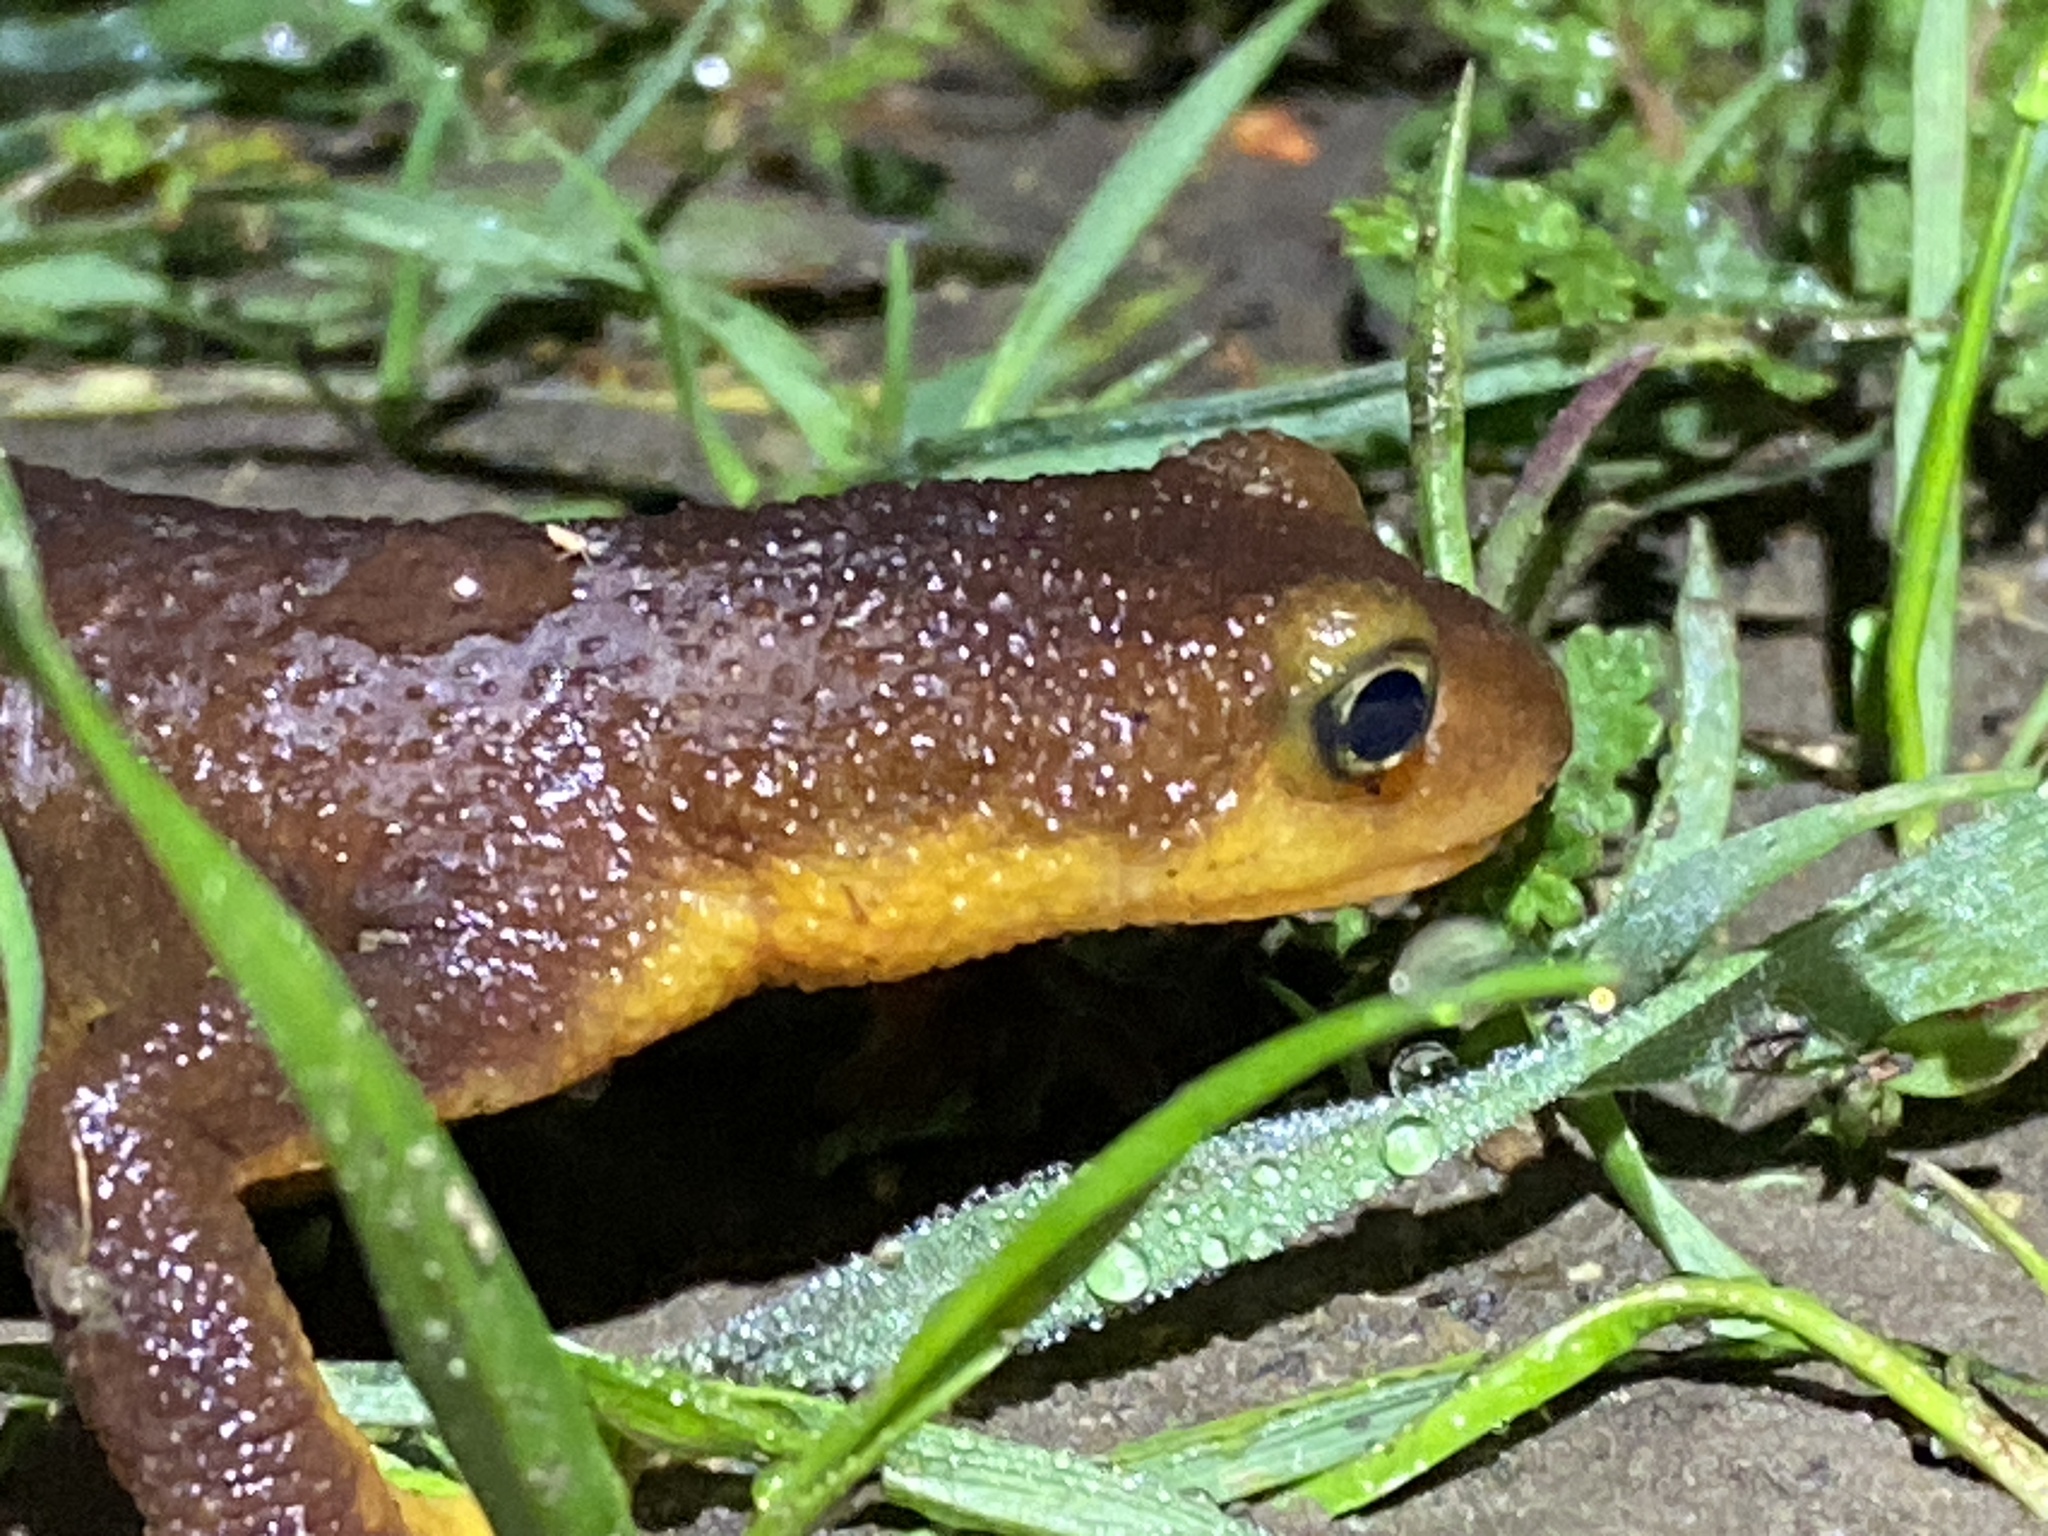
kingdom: Animalia
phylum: Chordata
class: Amphibia
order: Caudata
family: Salamandridae
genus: Taricha
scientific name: Taricha torosa
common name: California newt
